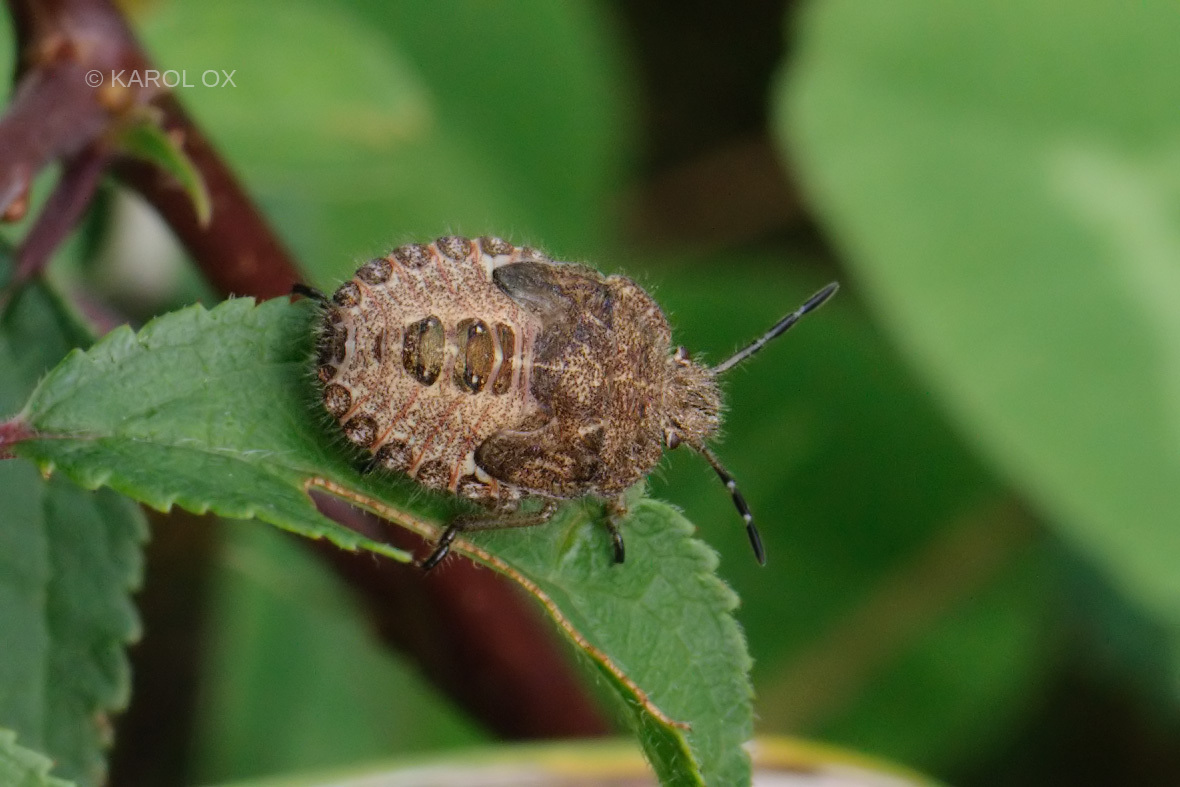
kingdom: Animalia
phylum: Arthropoda
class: Insecta
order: Hemiptera
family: Pentatomidae
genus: Dolycoris
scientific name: Dolycoris baccarum
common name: Sloe bug
